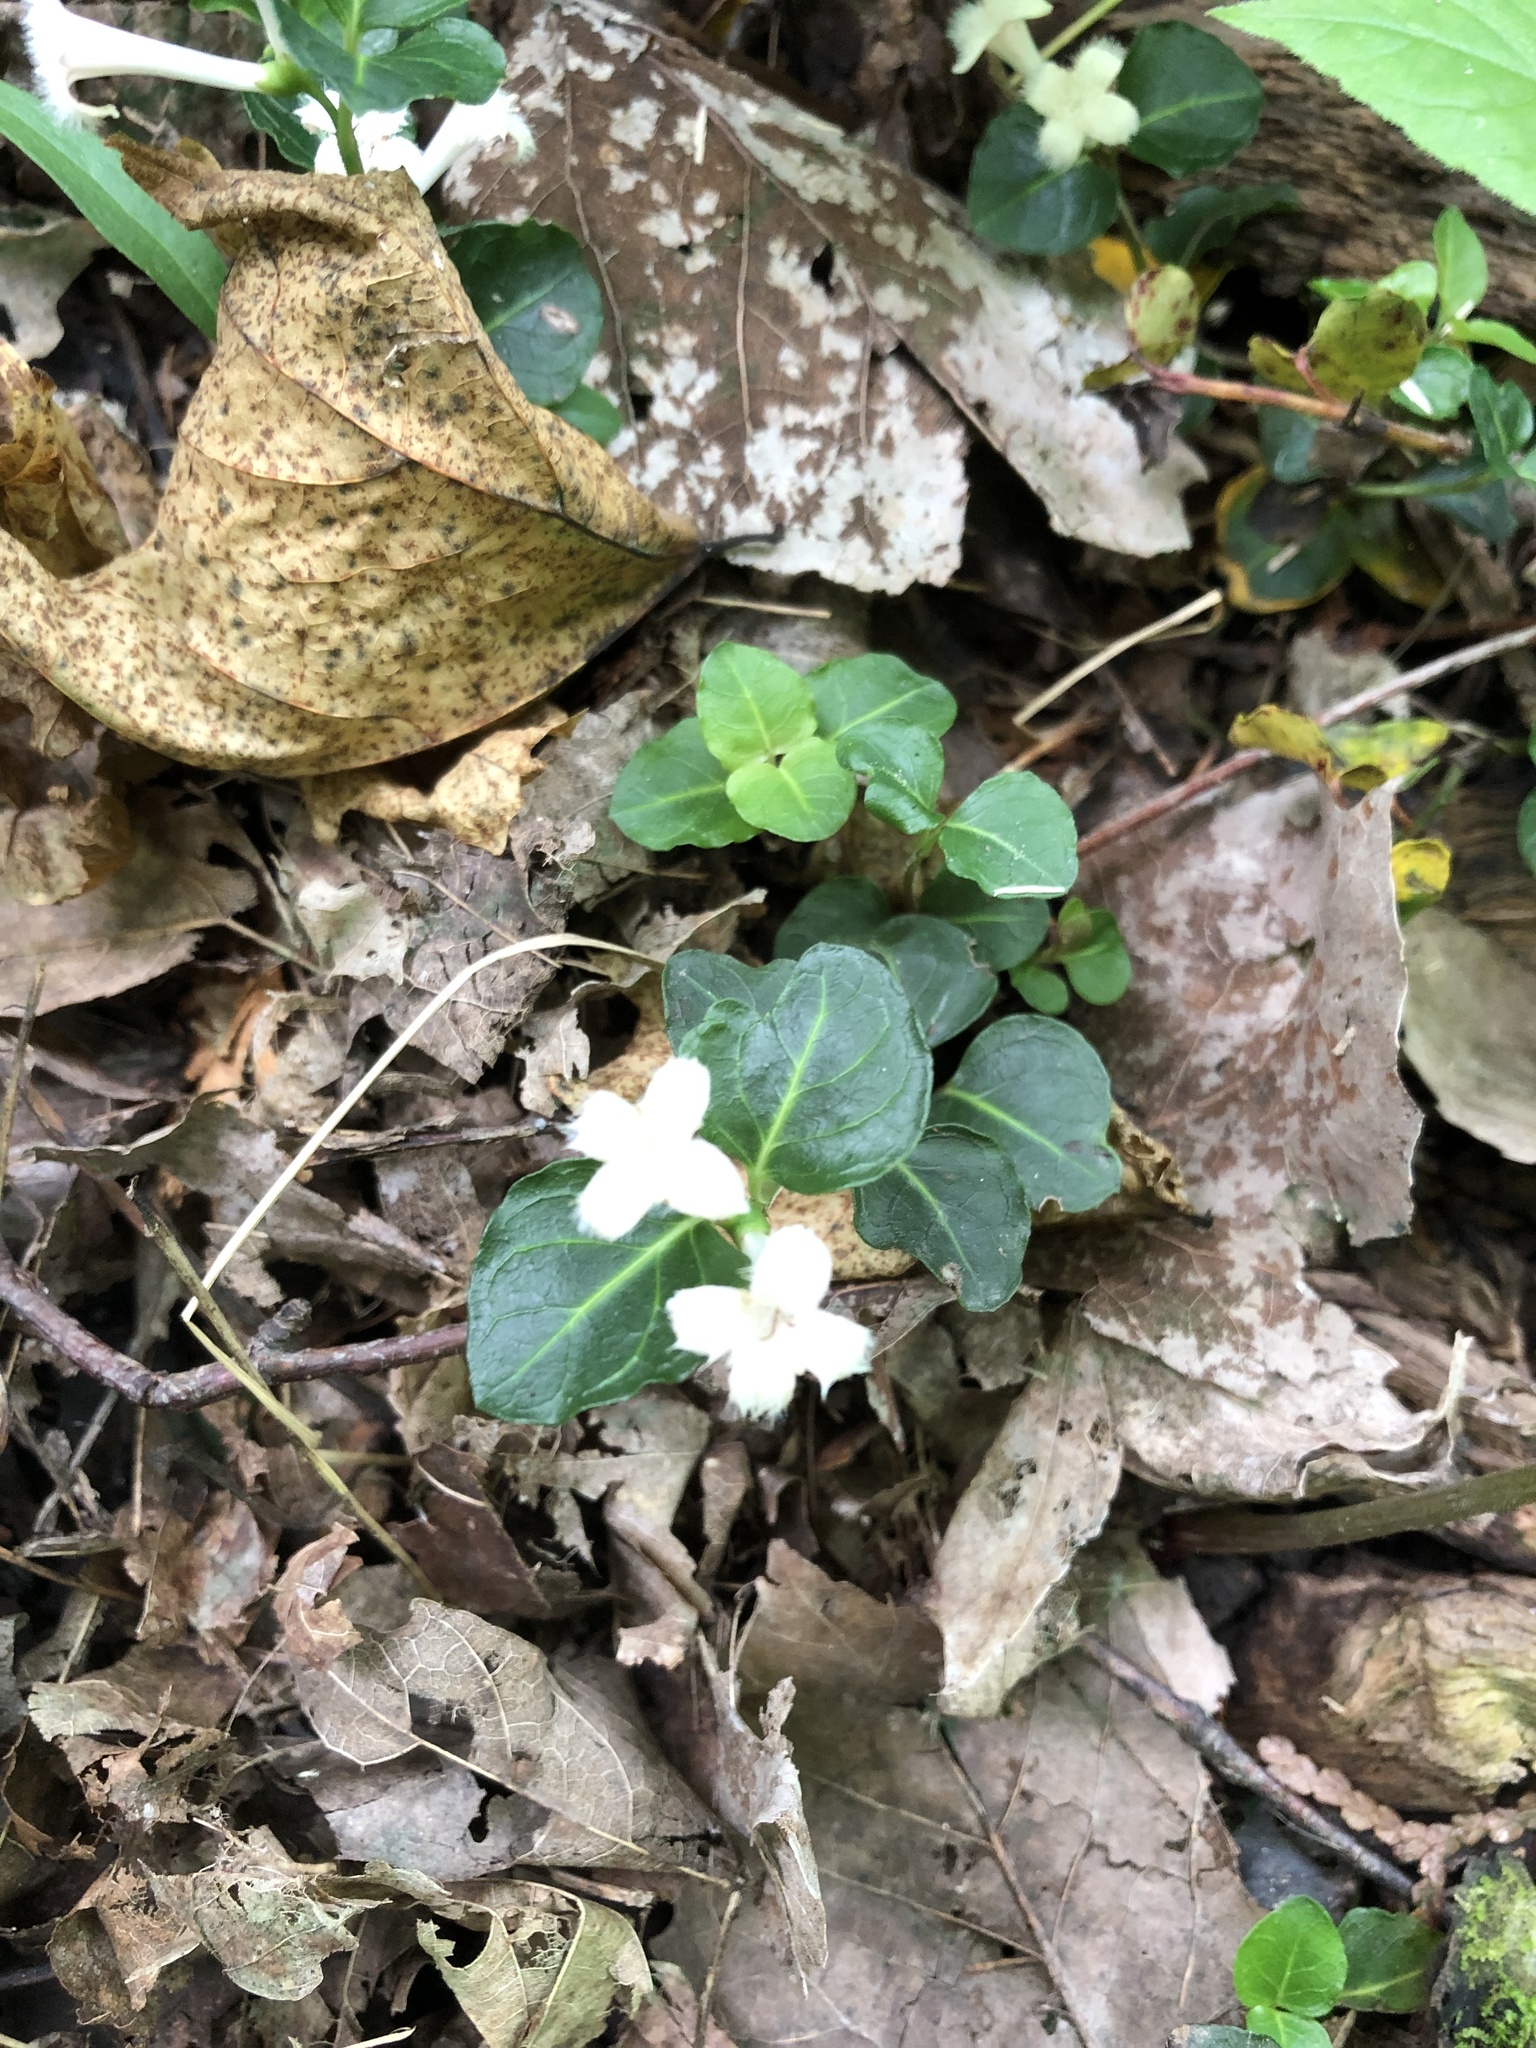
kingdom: Plantae
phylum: Tracheophyta
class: Magnoliopsida
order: Gentianales
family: Rubiaceae
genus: Mitchella
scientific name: Mitchella repens
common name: Partridge-berry
